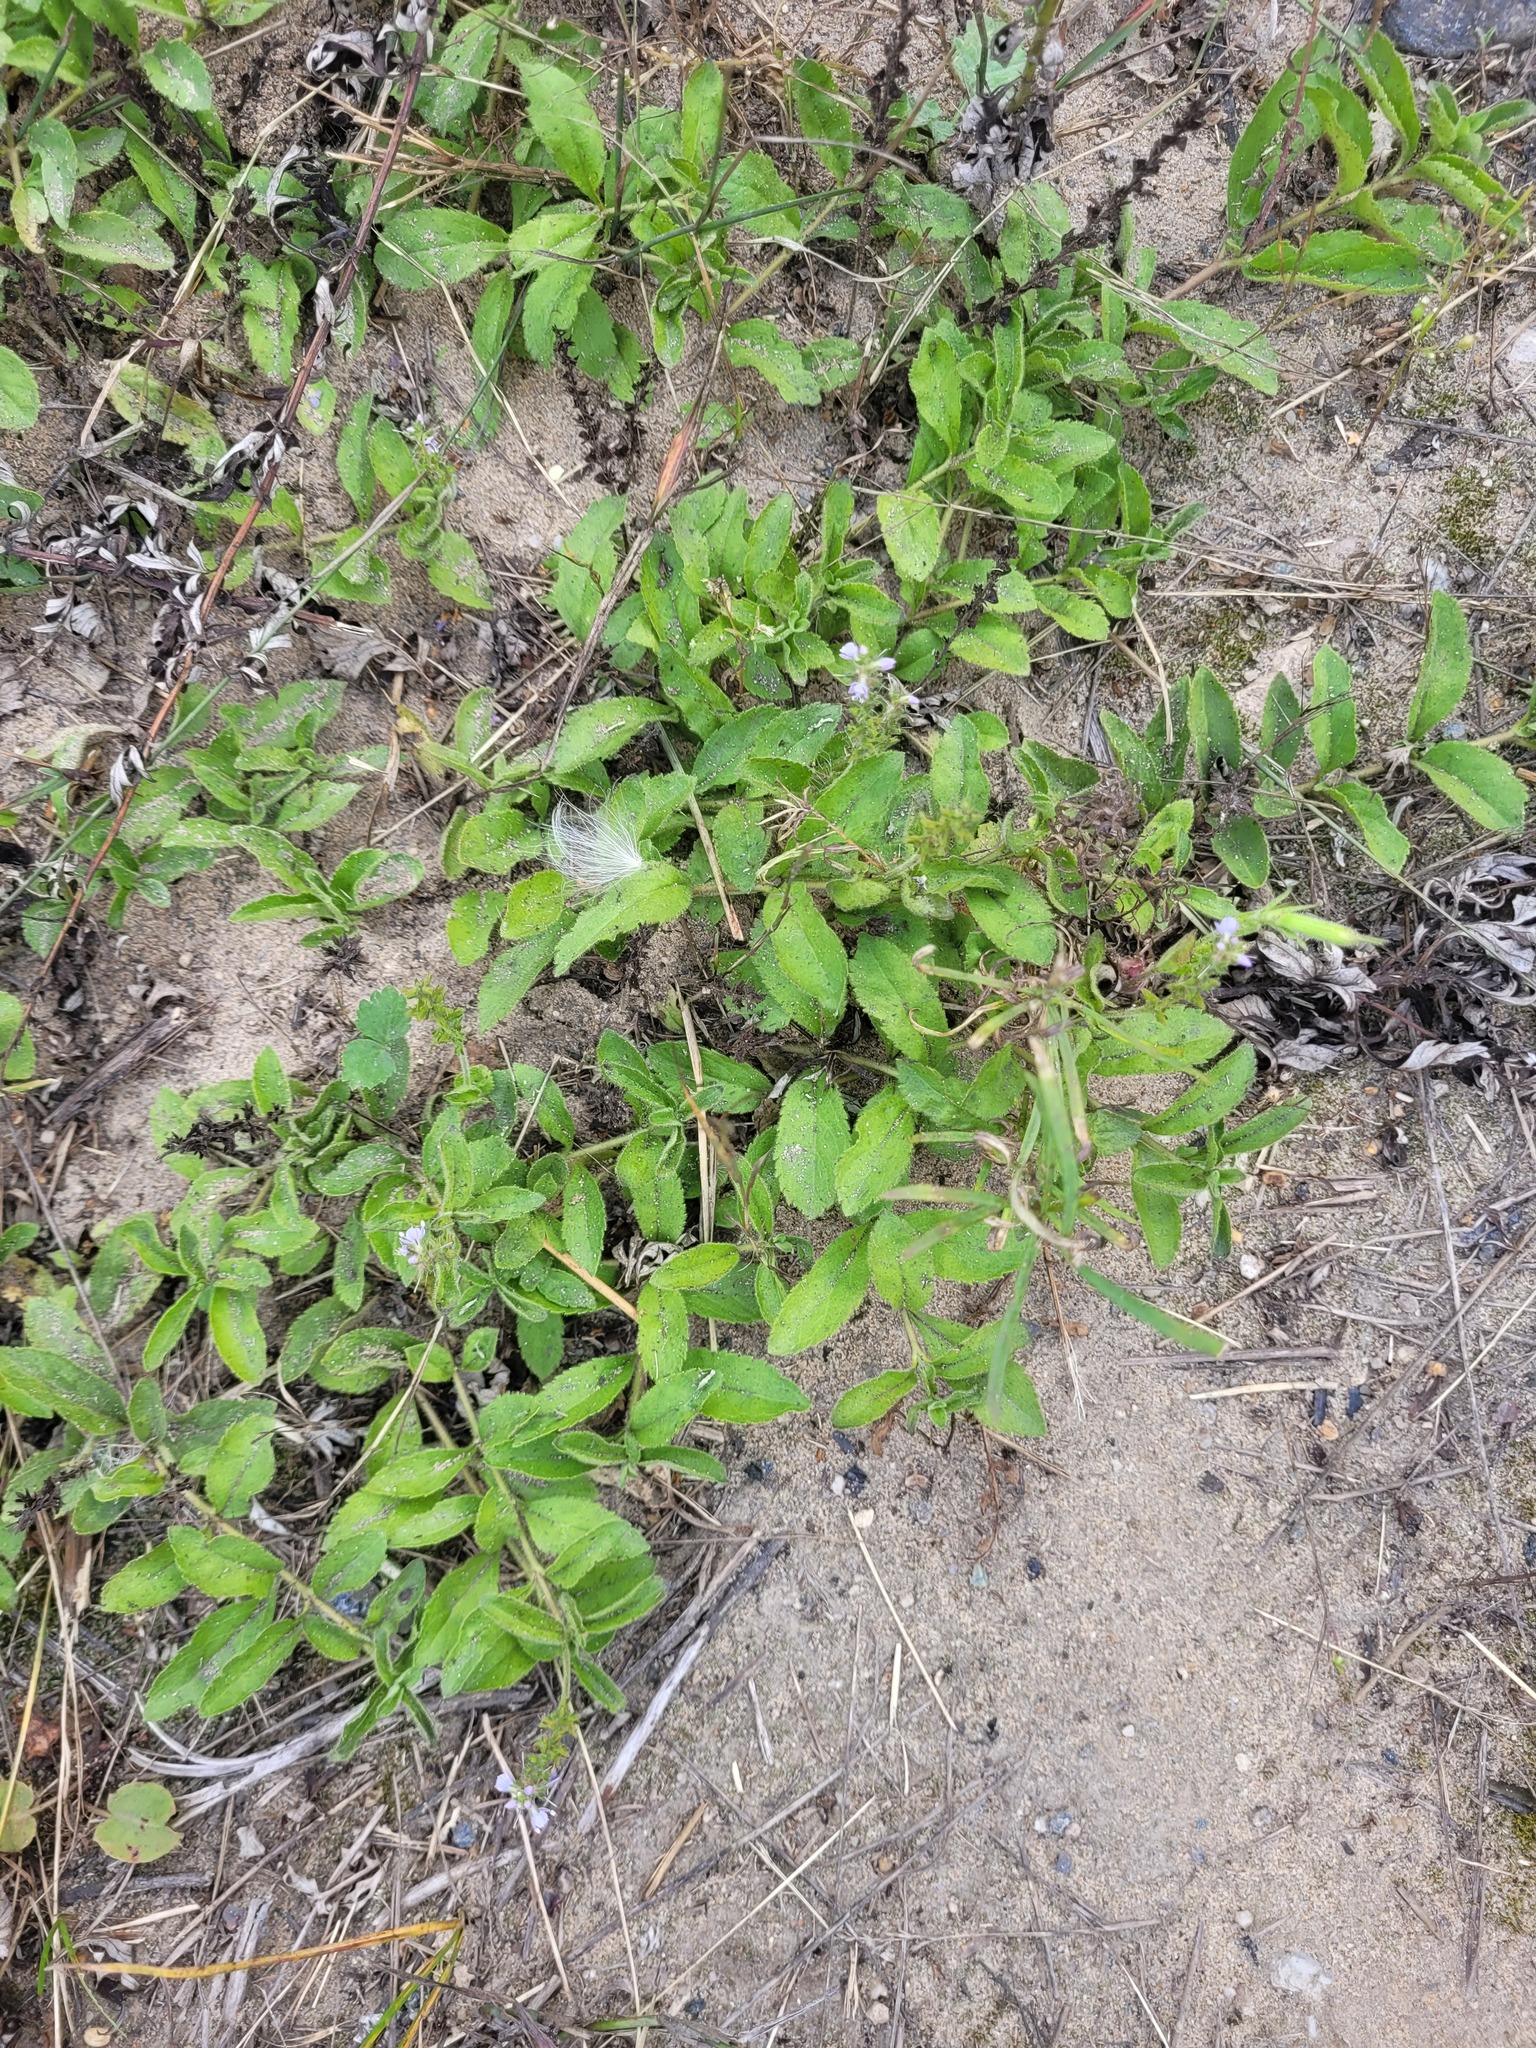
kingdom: Plantae
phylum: Tracheophyta
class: Magnoliopsida
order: Lamiales
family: Plantaginaceae
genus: Veronica
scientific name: Veronica officinalis
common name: Common speedwell
